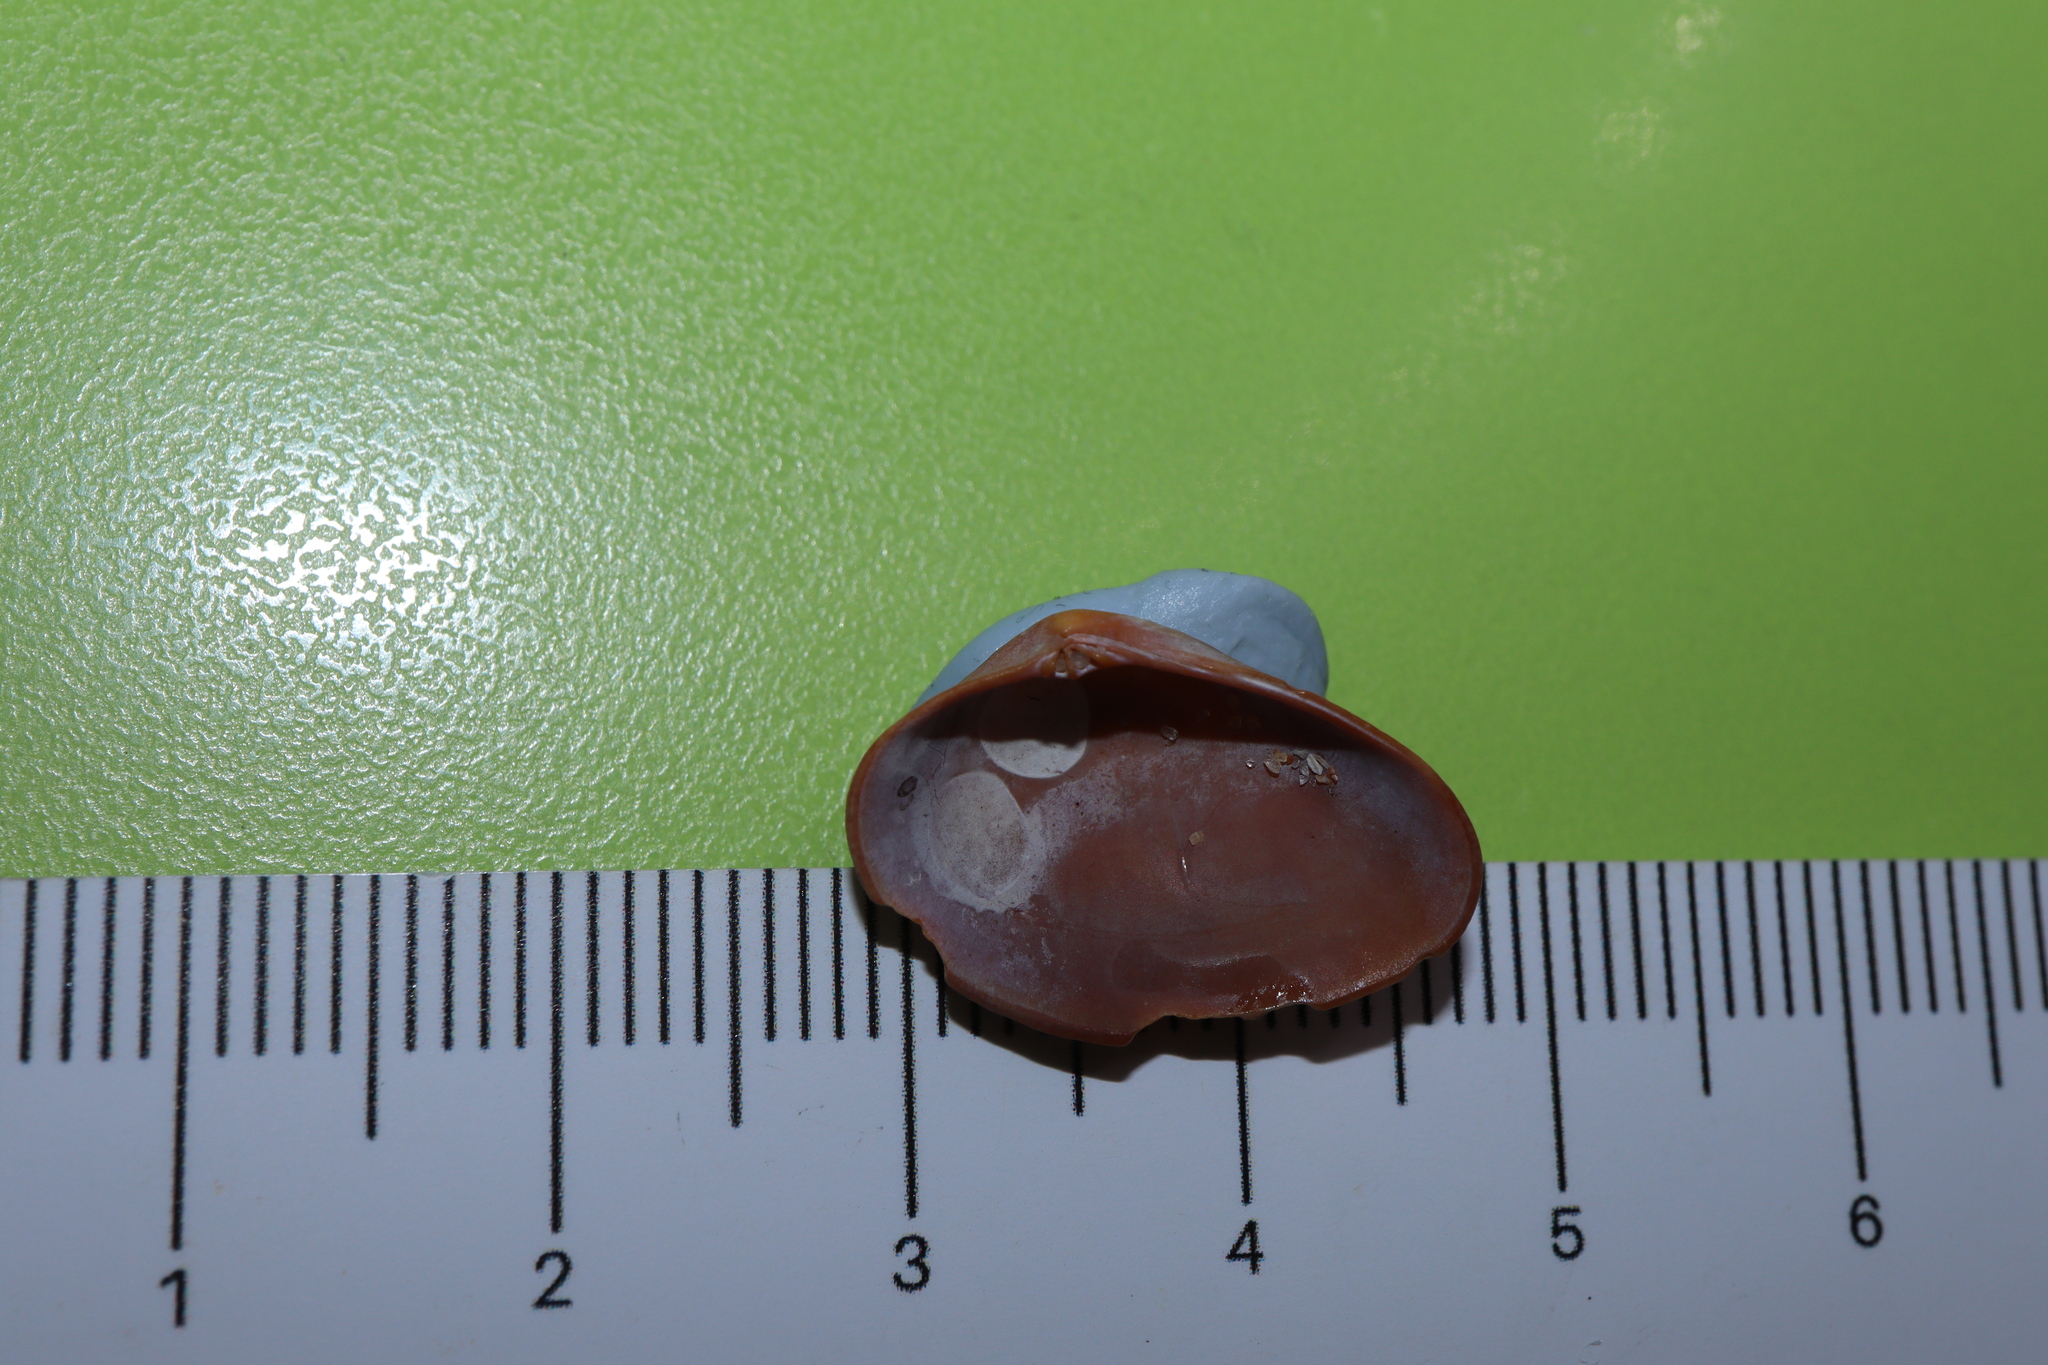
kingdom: Animalia
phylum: Mollusca
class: Bivalvia
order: Venerida
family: Veneridae
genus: Eumarcia
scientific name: Eumarcia fumigata
